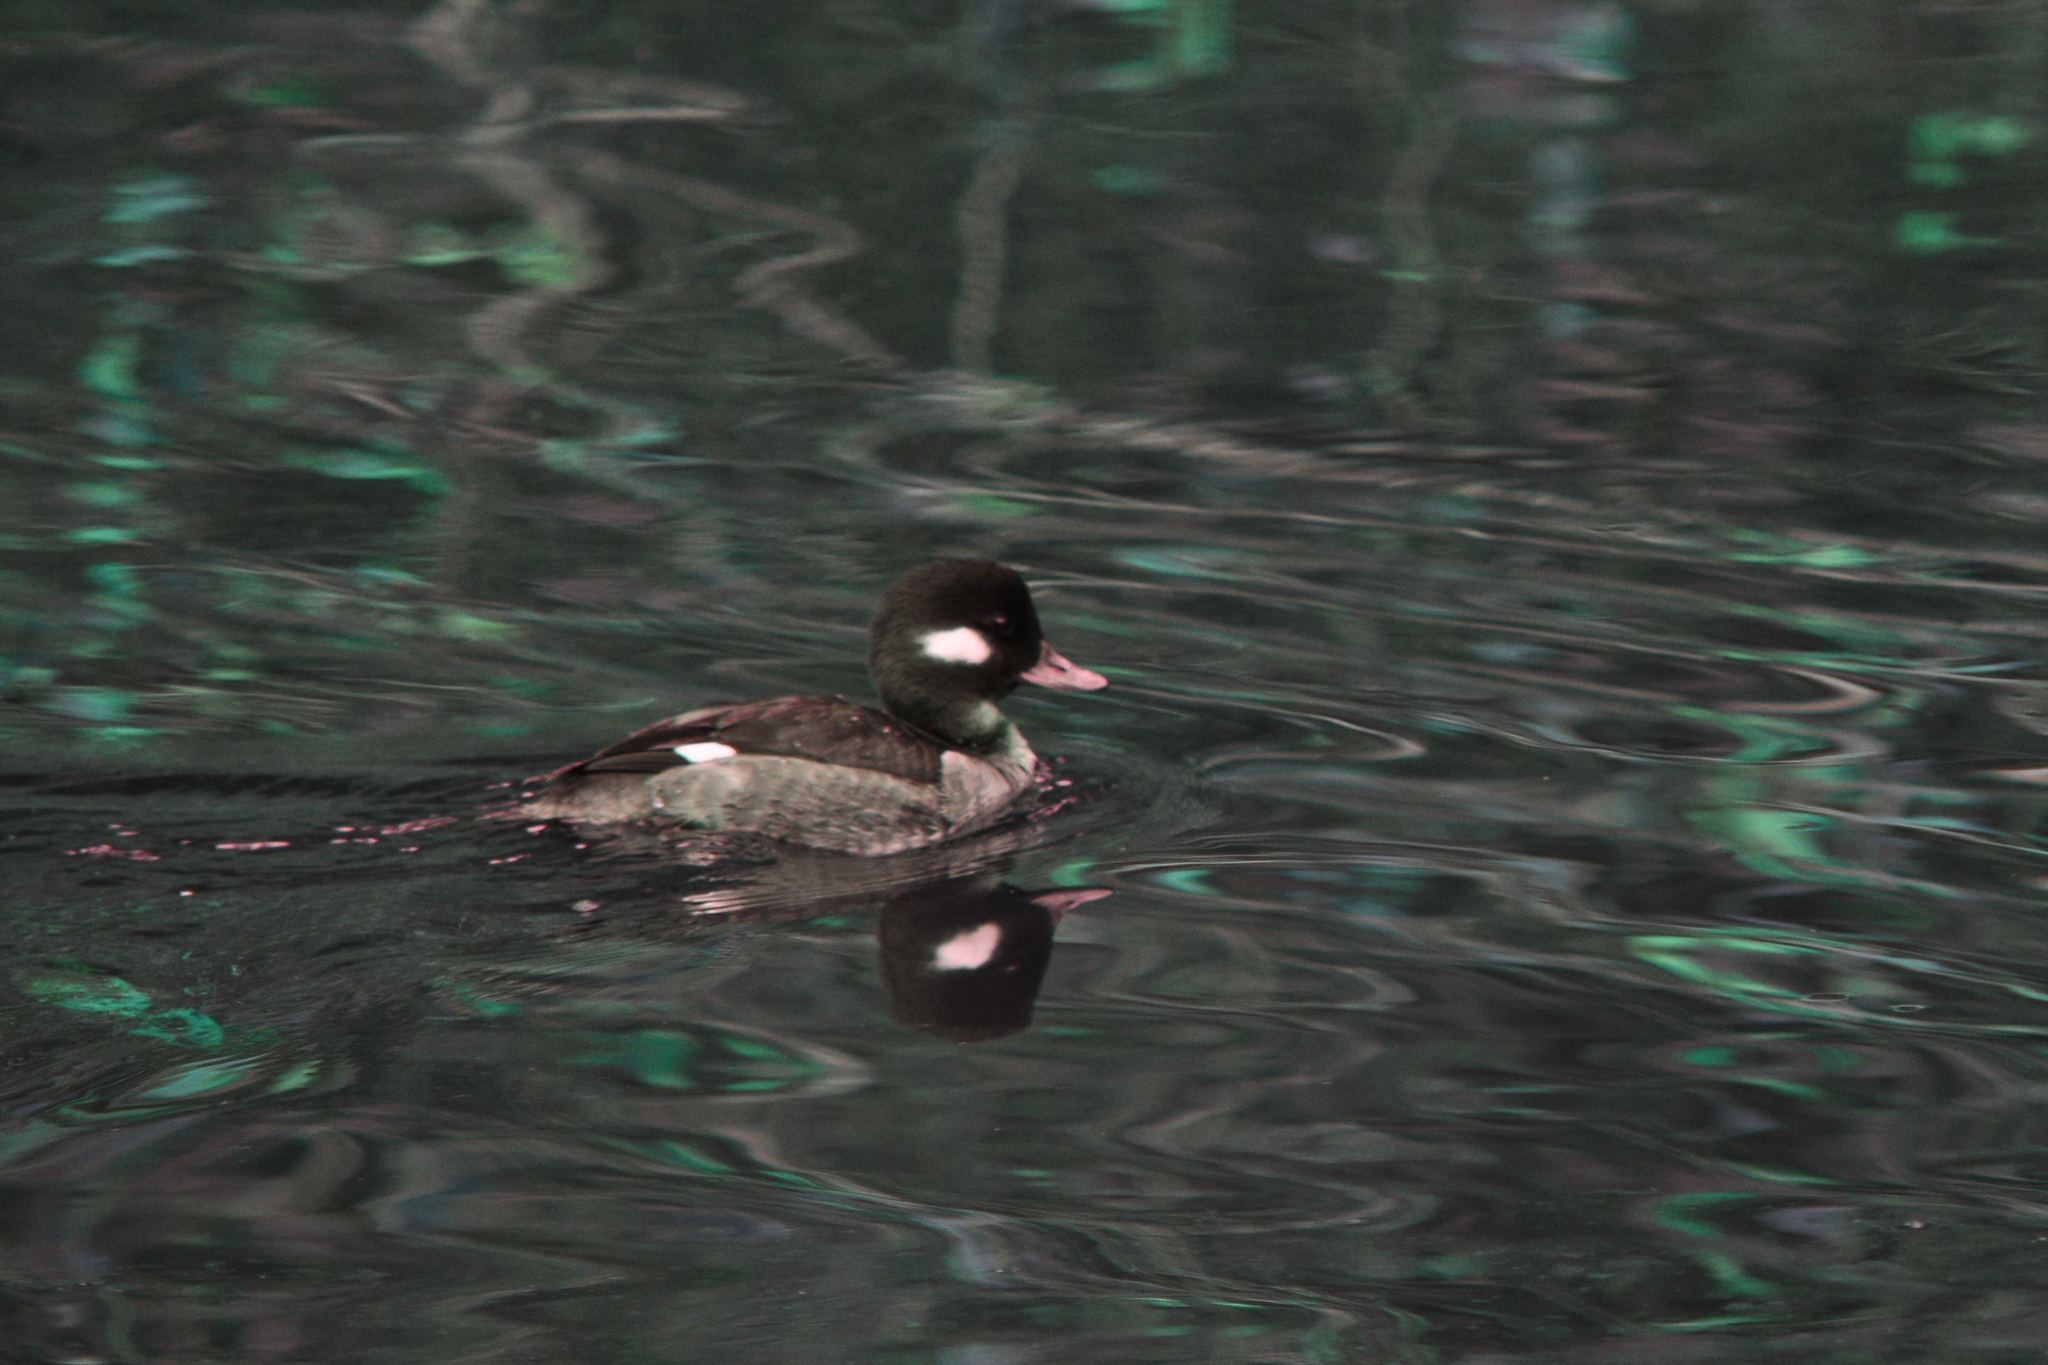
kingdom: Animalia
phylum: Chordata
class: Aves
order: Anseriformes
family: Anatidae
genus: Bucephala
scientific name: Bucephala albeola
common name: Bufflehead
